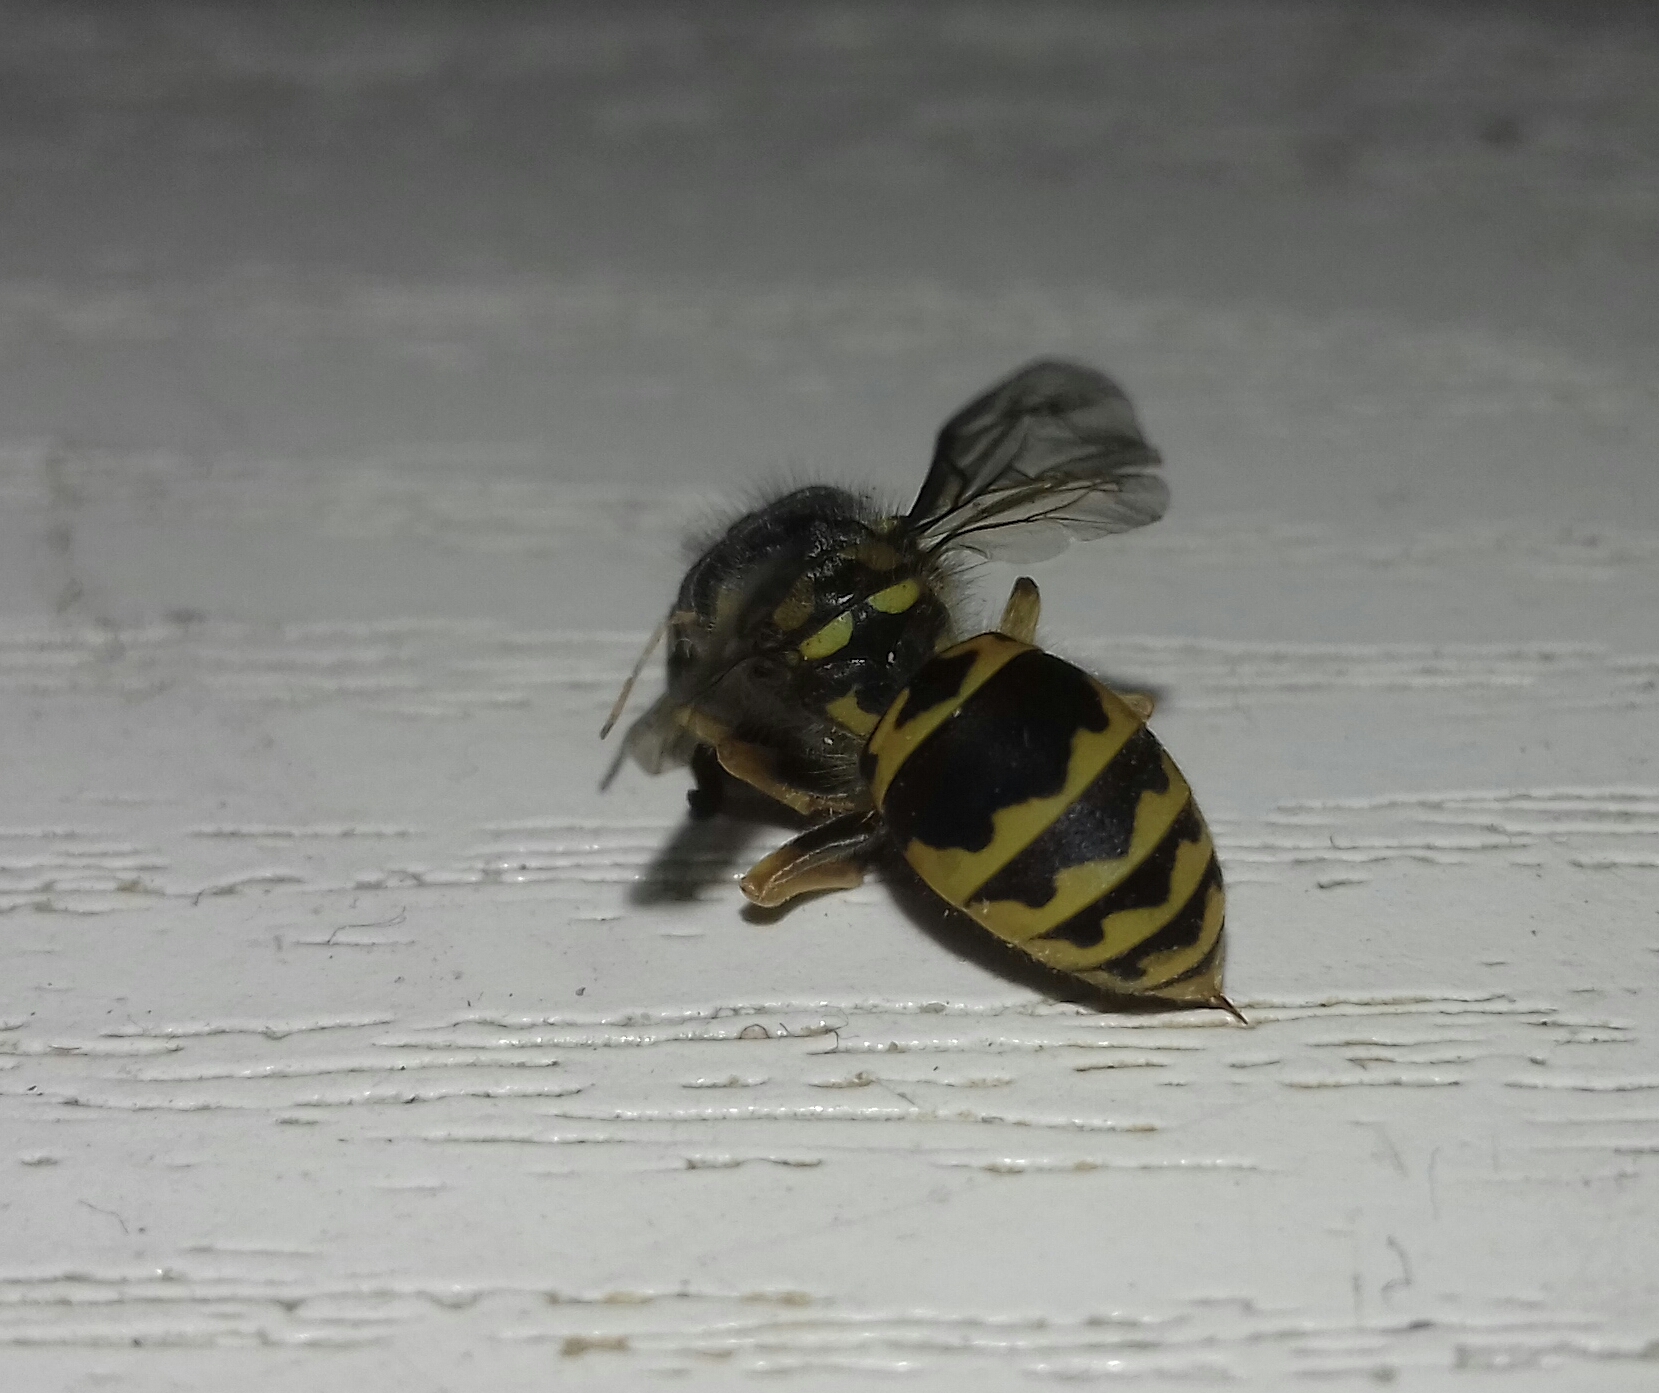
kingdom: Animalia
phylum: Arthropoda
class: Insecta
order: Hymenoptera
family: Vespidae
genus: Vespula
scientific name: Vespula germanica
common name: German wasp
